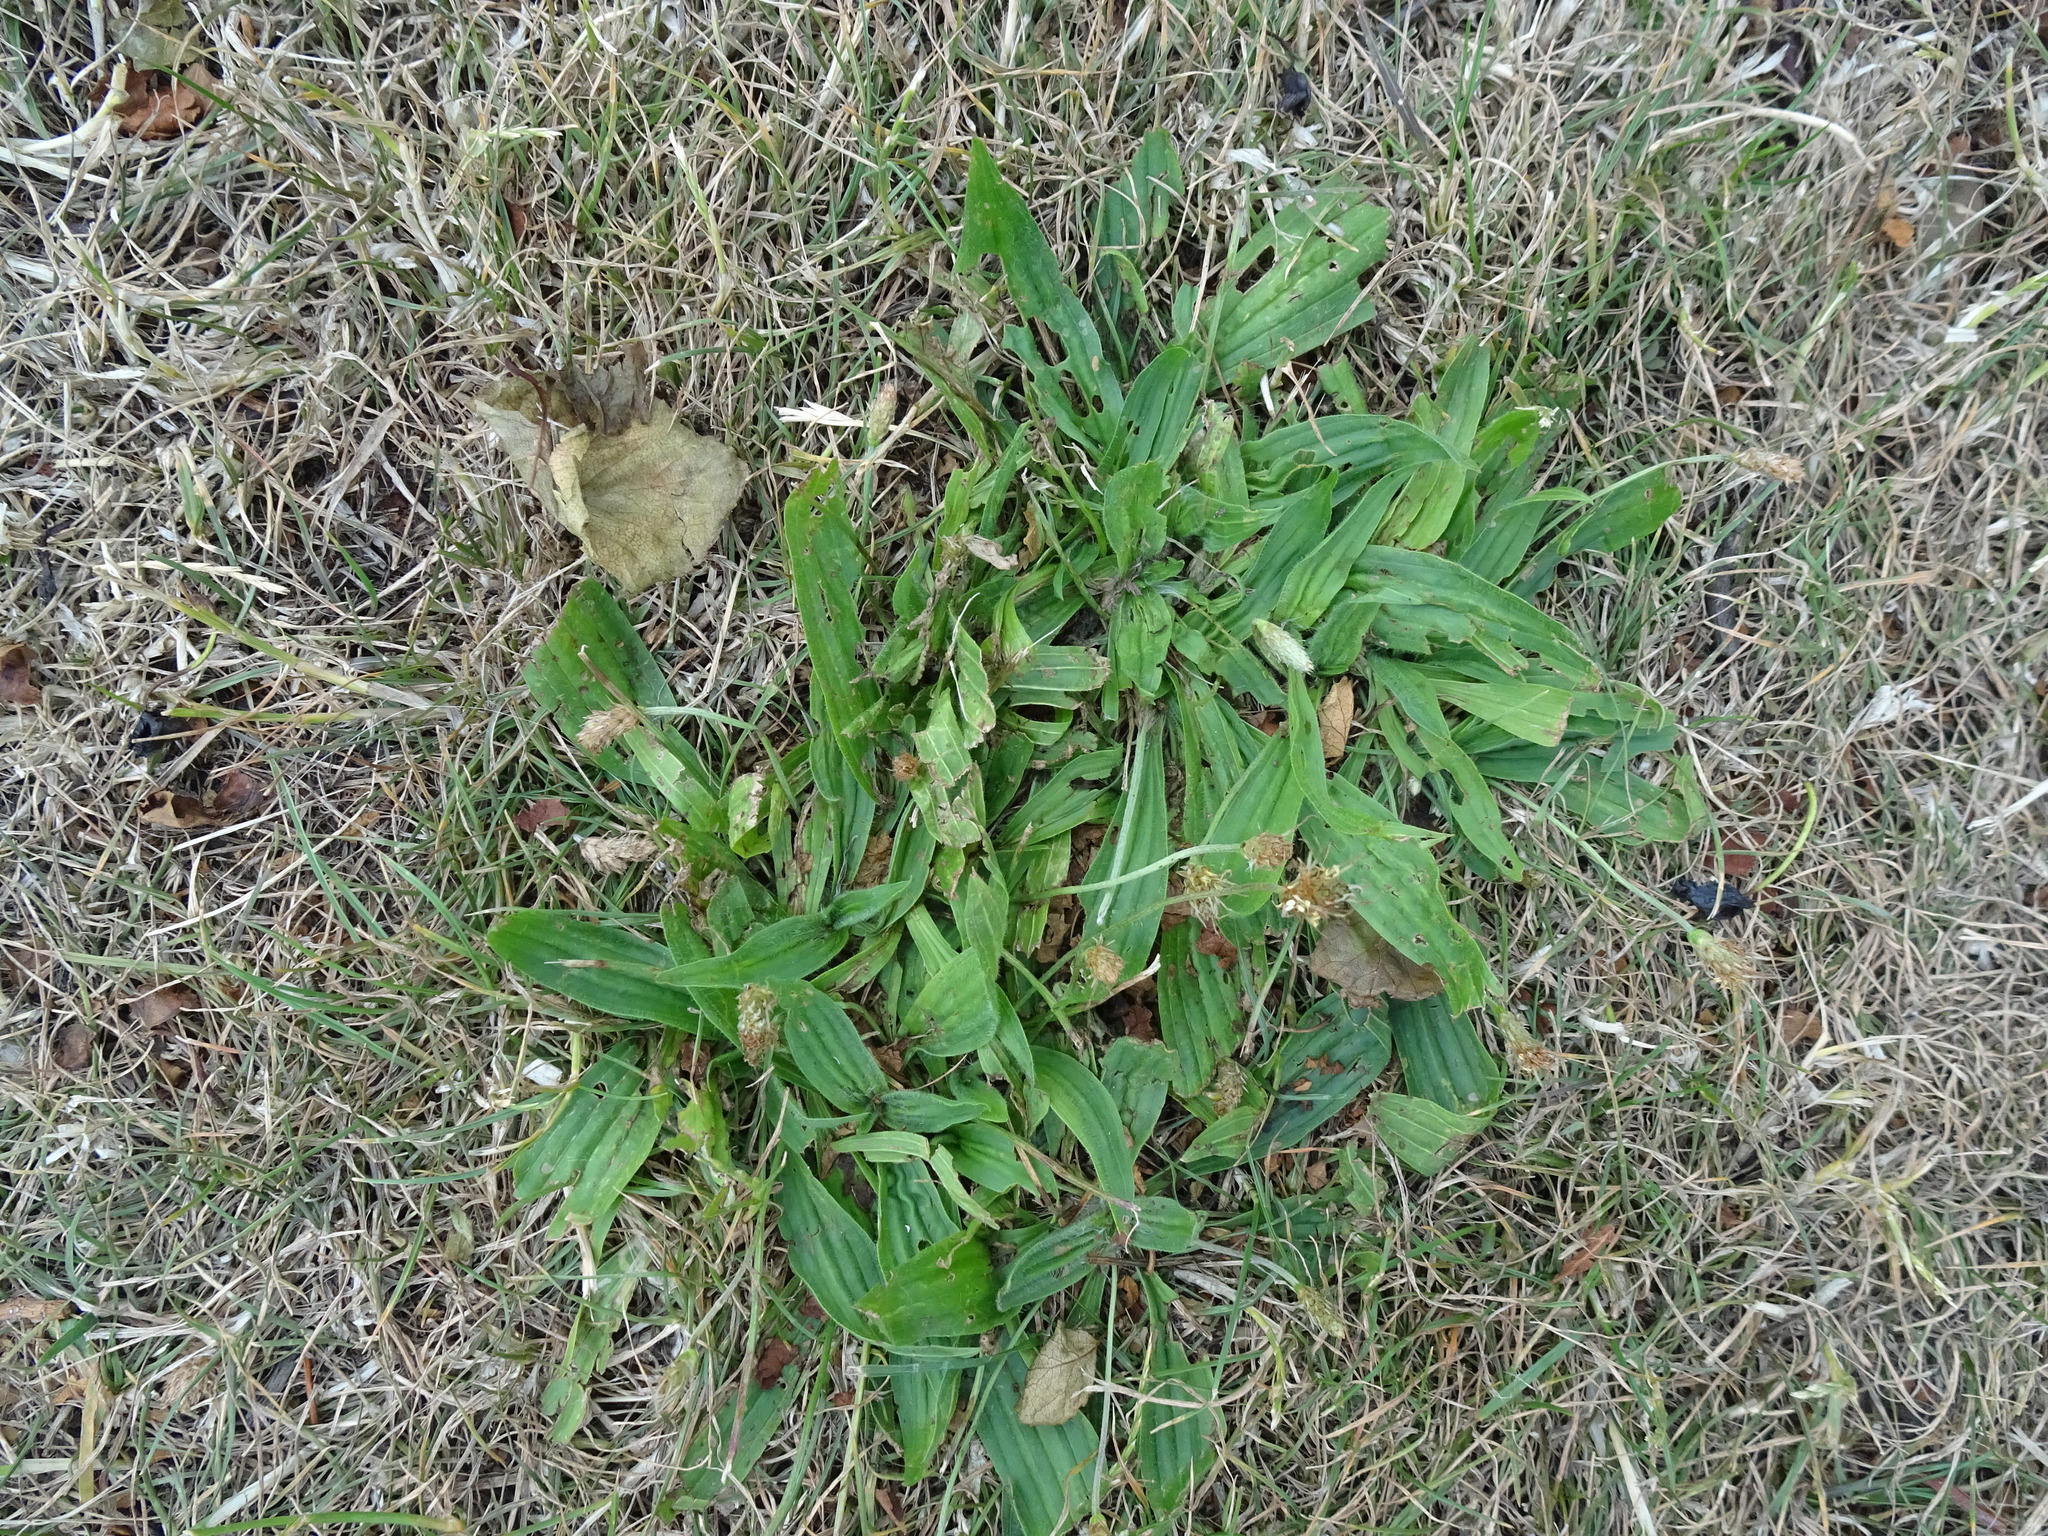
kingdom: Plantae
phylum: Tracheophyta
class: Magnoliopsida
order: Lamiales
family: Plantaginaceae
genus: Plantago
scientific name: Plantago lanceolata
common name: Ribwort plantain
